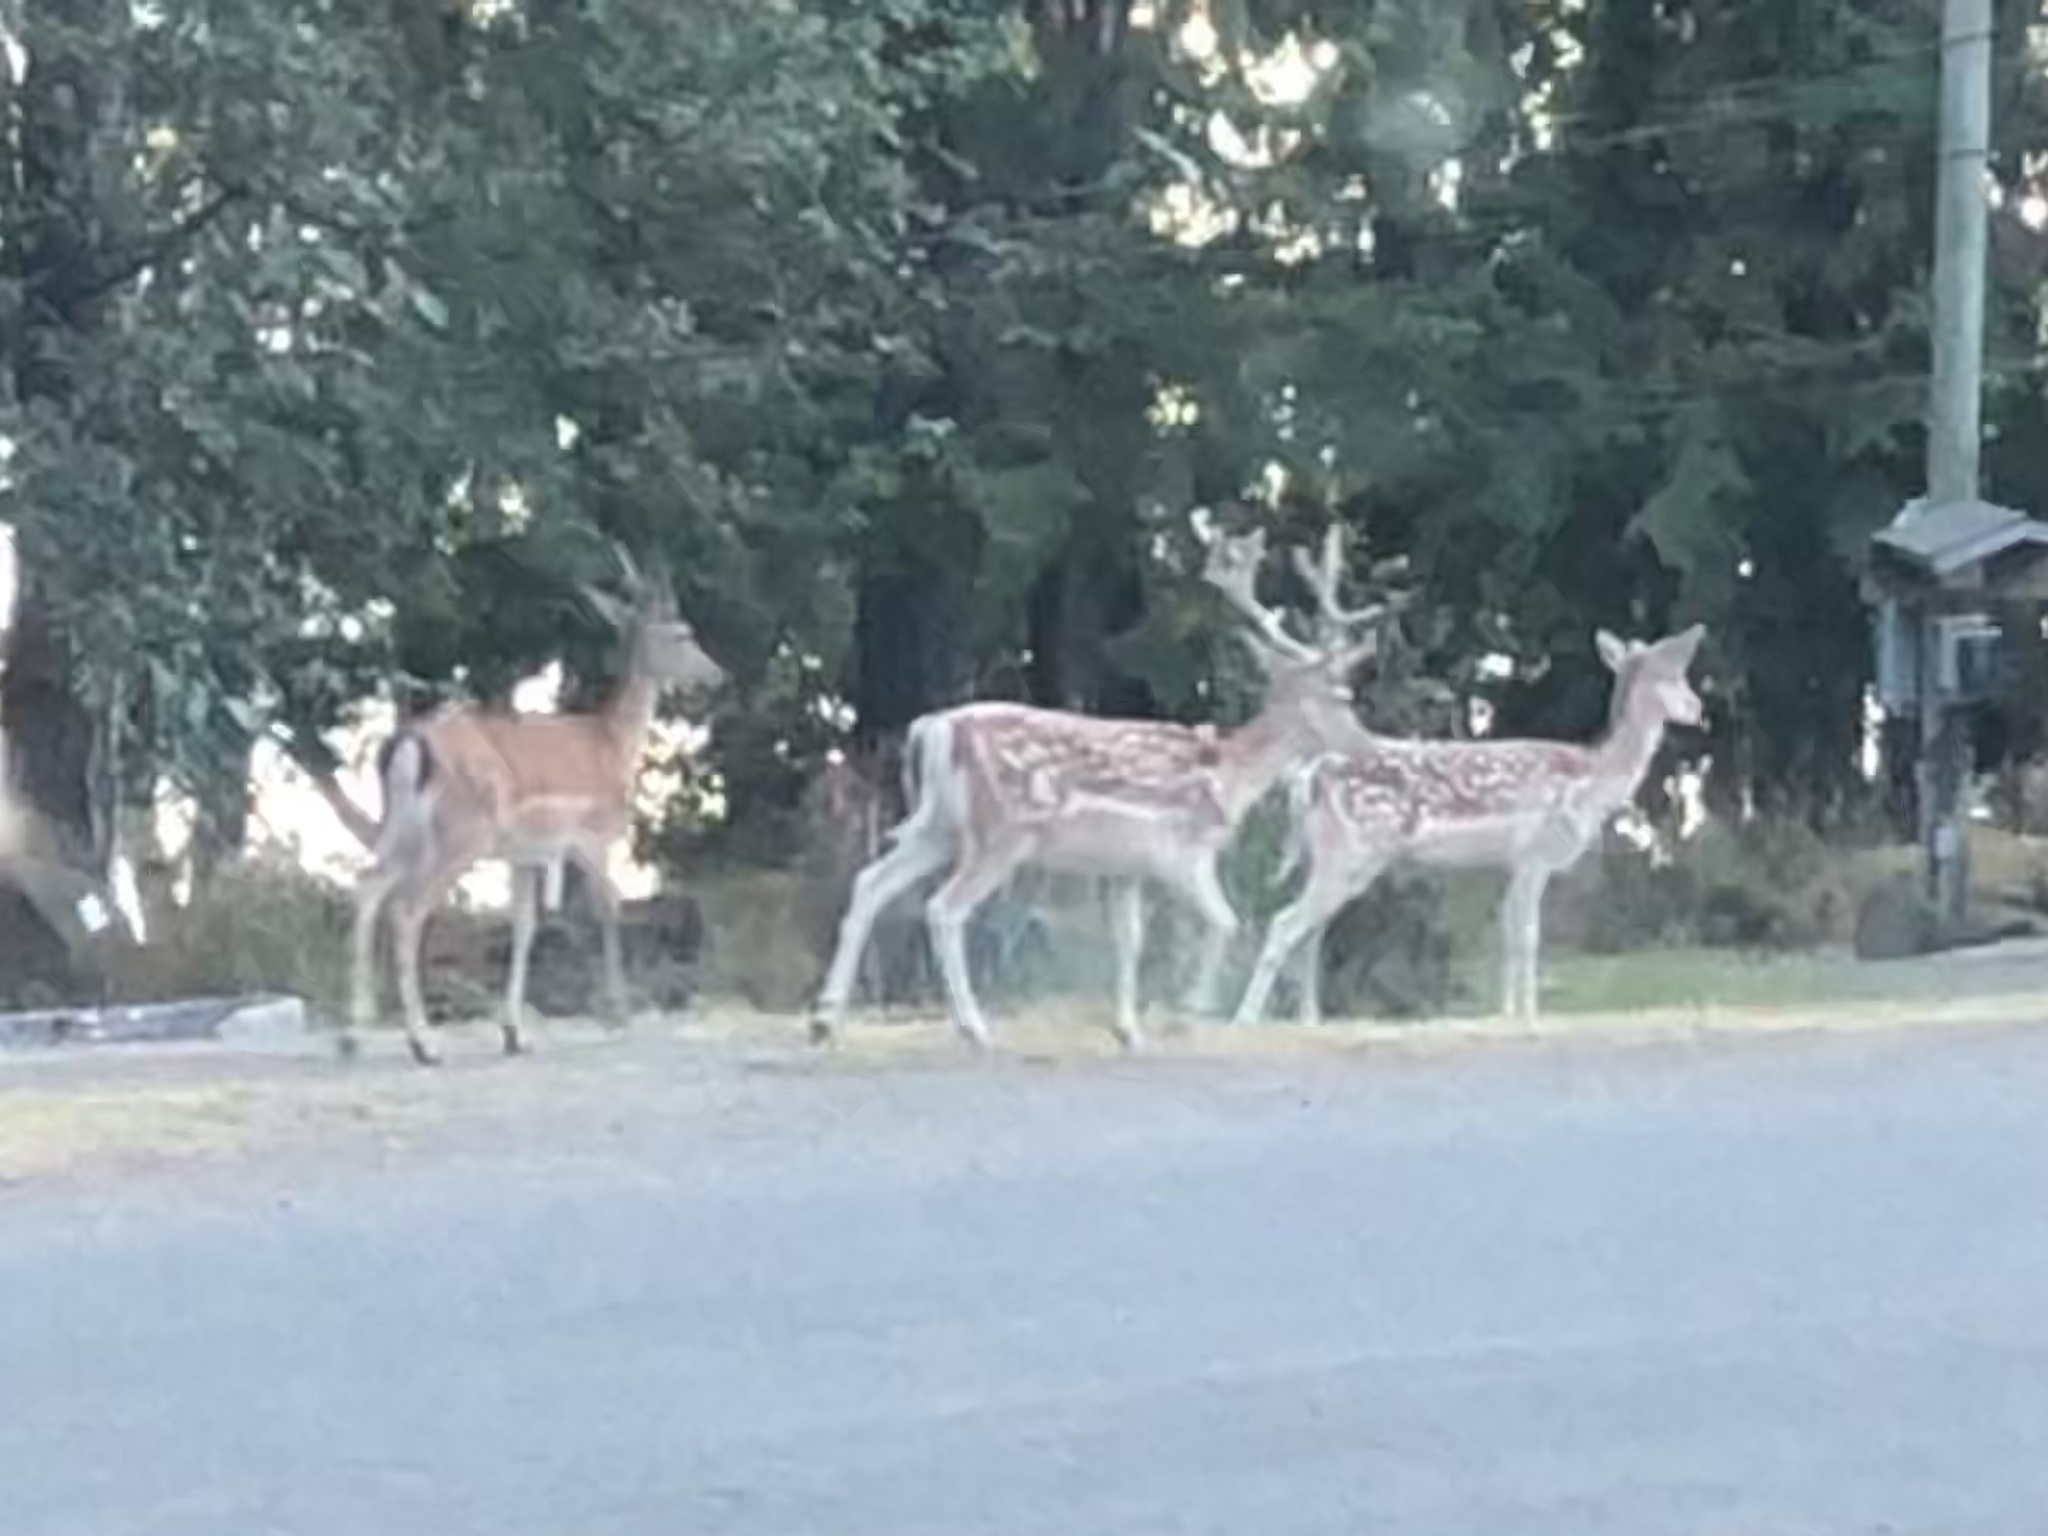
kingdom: Animalia
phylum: Chordata
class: Mammalia
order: Artiodactyla
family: Cervidae
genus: Dama
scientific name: Dama dama
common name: Fallow deer
